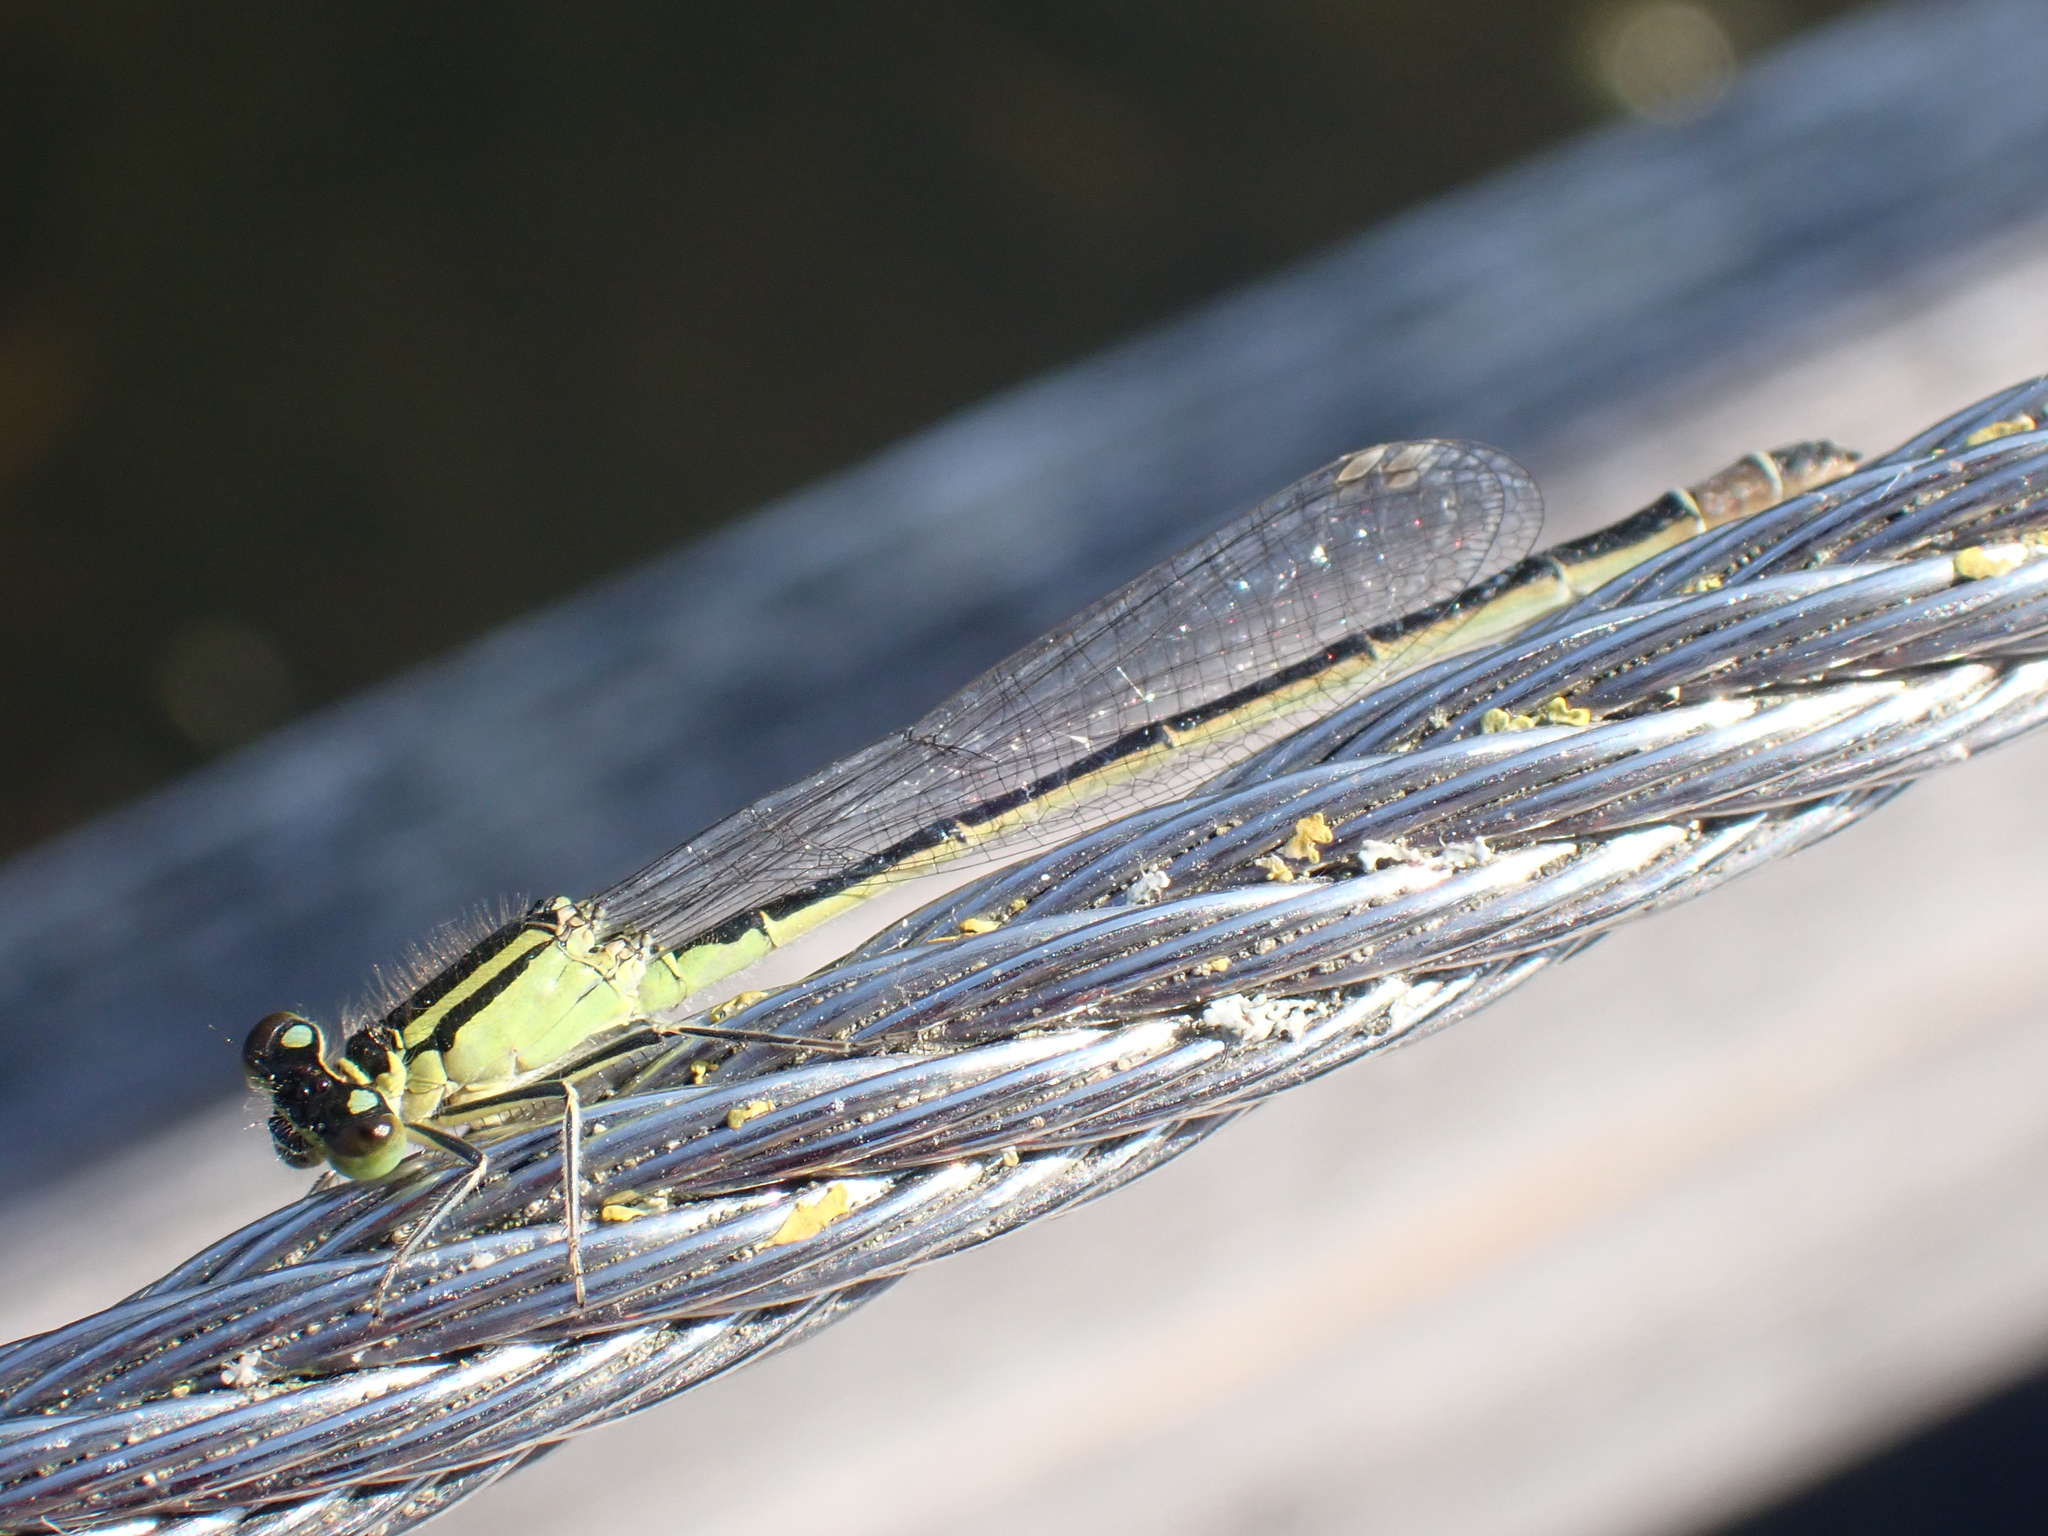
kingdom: Animalia
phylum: Arthropoda
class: Insecta
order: Odonata
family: Coenagrionidae
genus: Ischnura
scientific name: Ischnura elegans
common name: Blue-tailed damselfly
